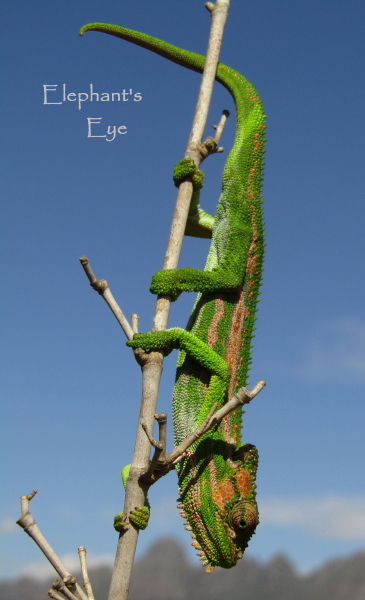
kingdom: Animalia
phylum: Chordata
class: Squamata
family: Chamaeleonidae
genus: Bradypodion
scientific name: Bradypodion pumilum
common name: Cape dwarf chameleon
